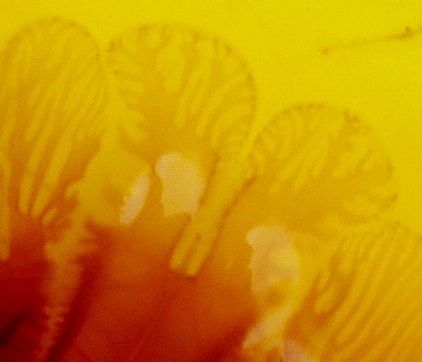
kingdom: Animalia
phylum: Cnidaria
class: Scyphozoa
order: Semaeostomeae
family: Cyaneidae
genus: Cyanea
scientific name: Cyanea capillata
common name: Lion's mane jellyfish
